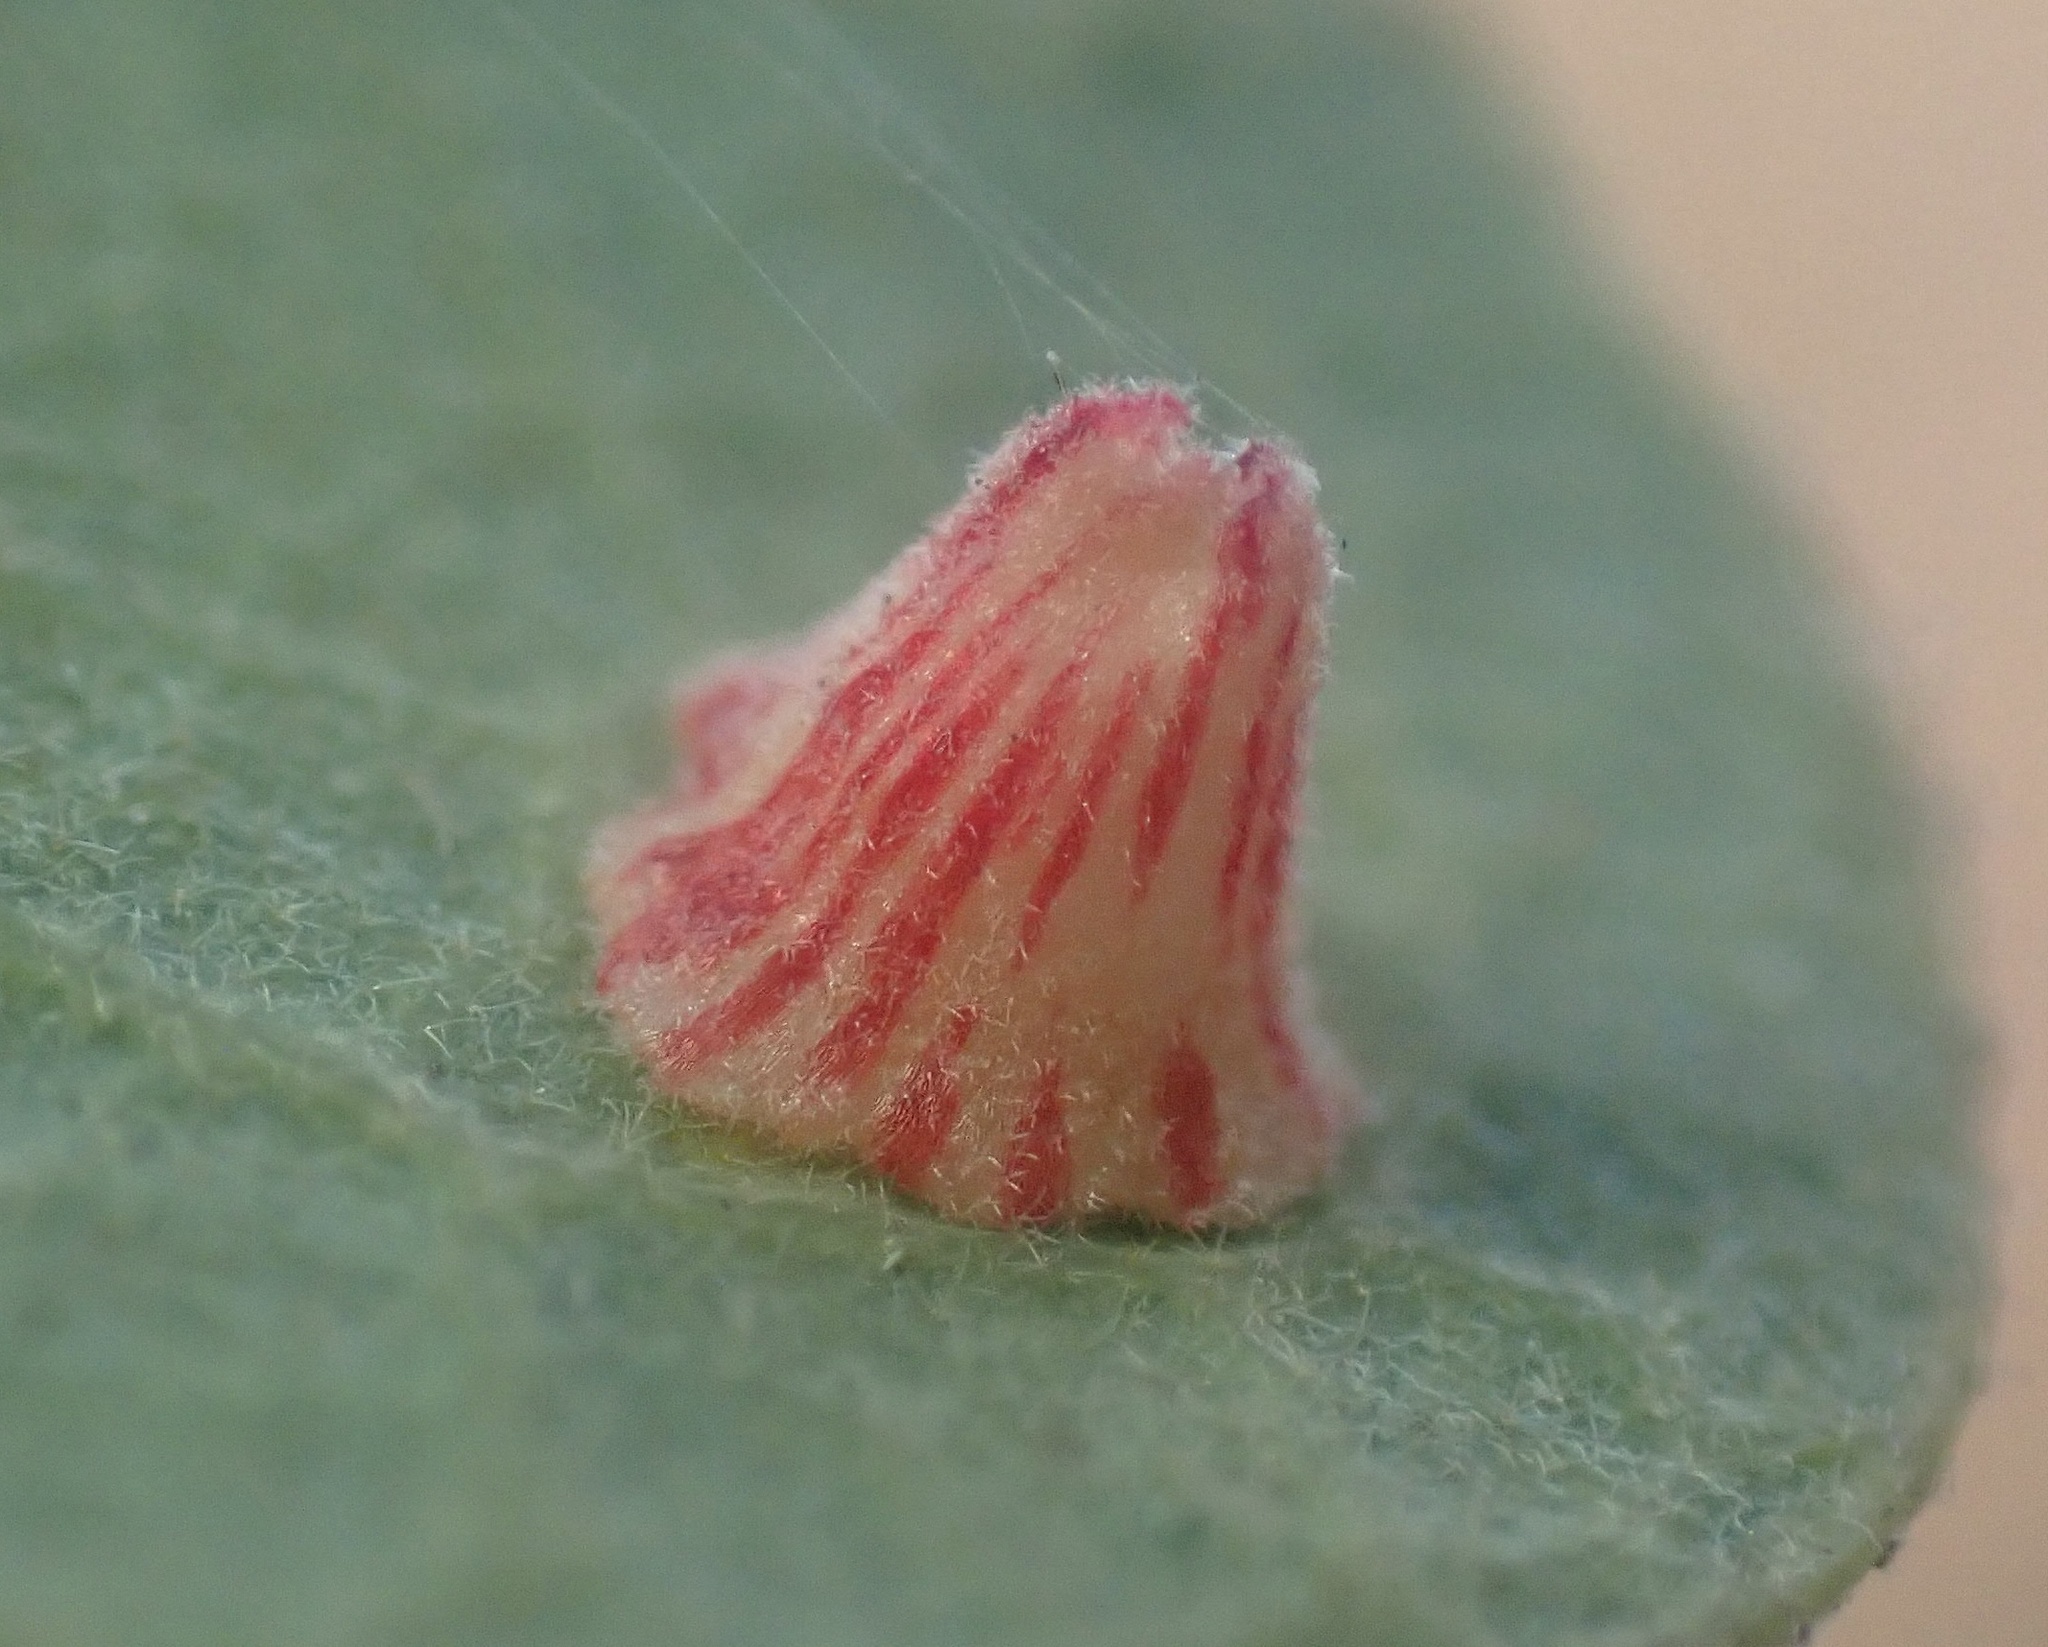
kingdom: Animalia
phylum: Arthropoda
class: Insecta
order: Hymenoptera
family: Cynipidae
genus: Andricus
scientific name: Andricus
